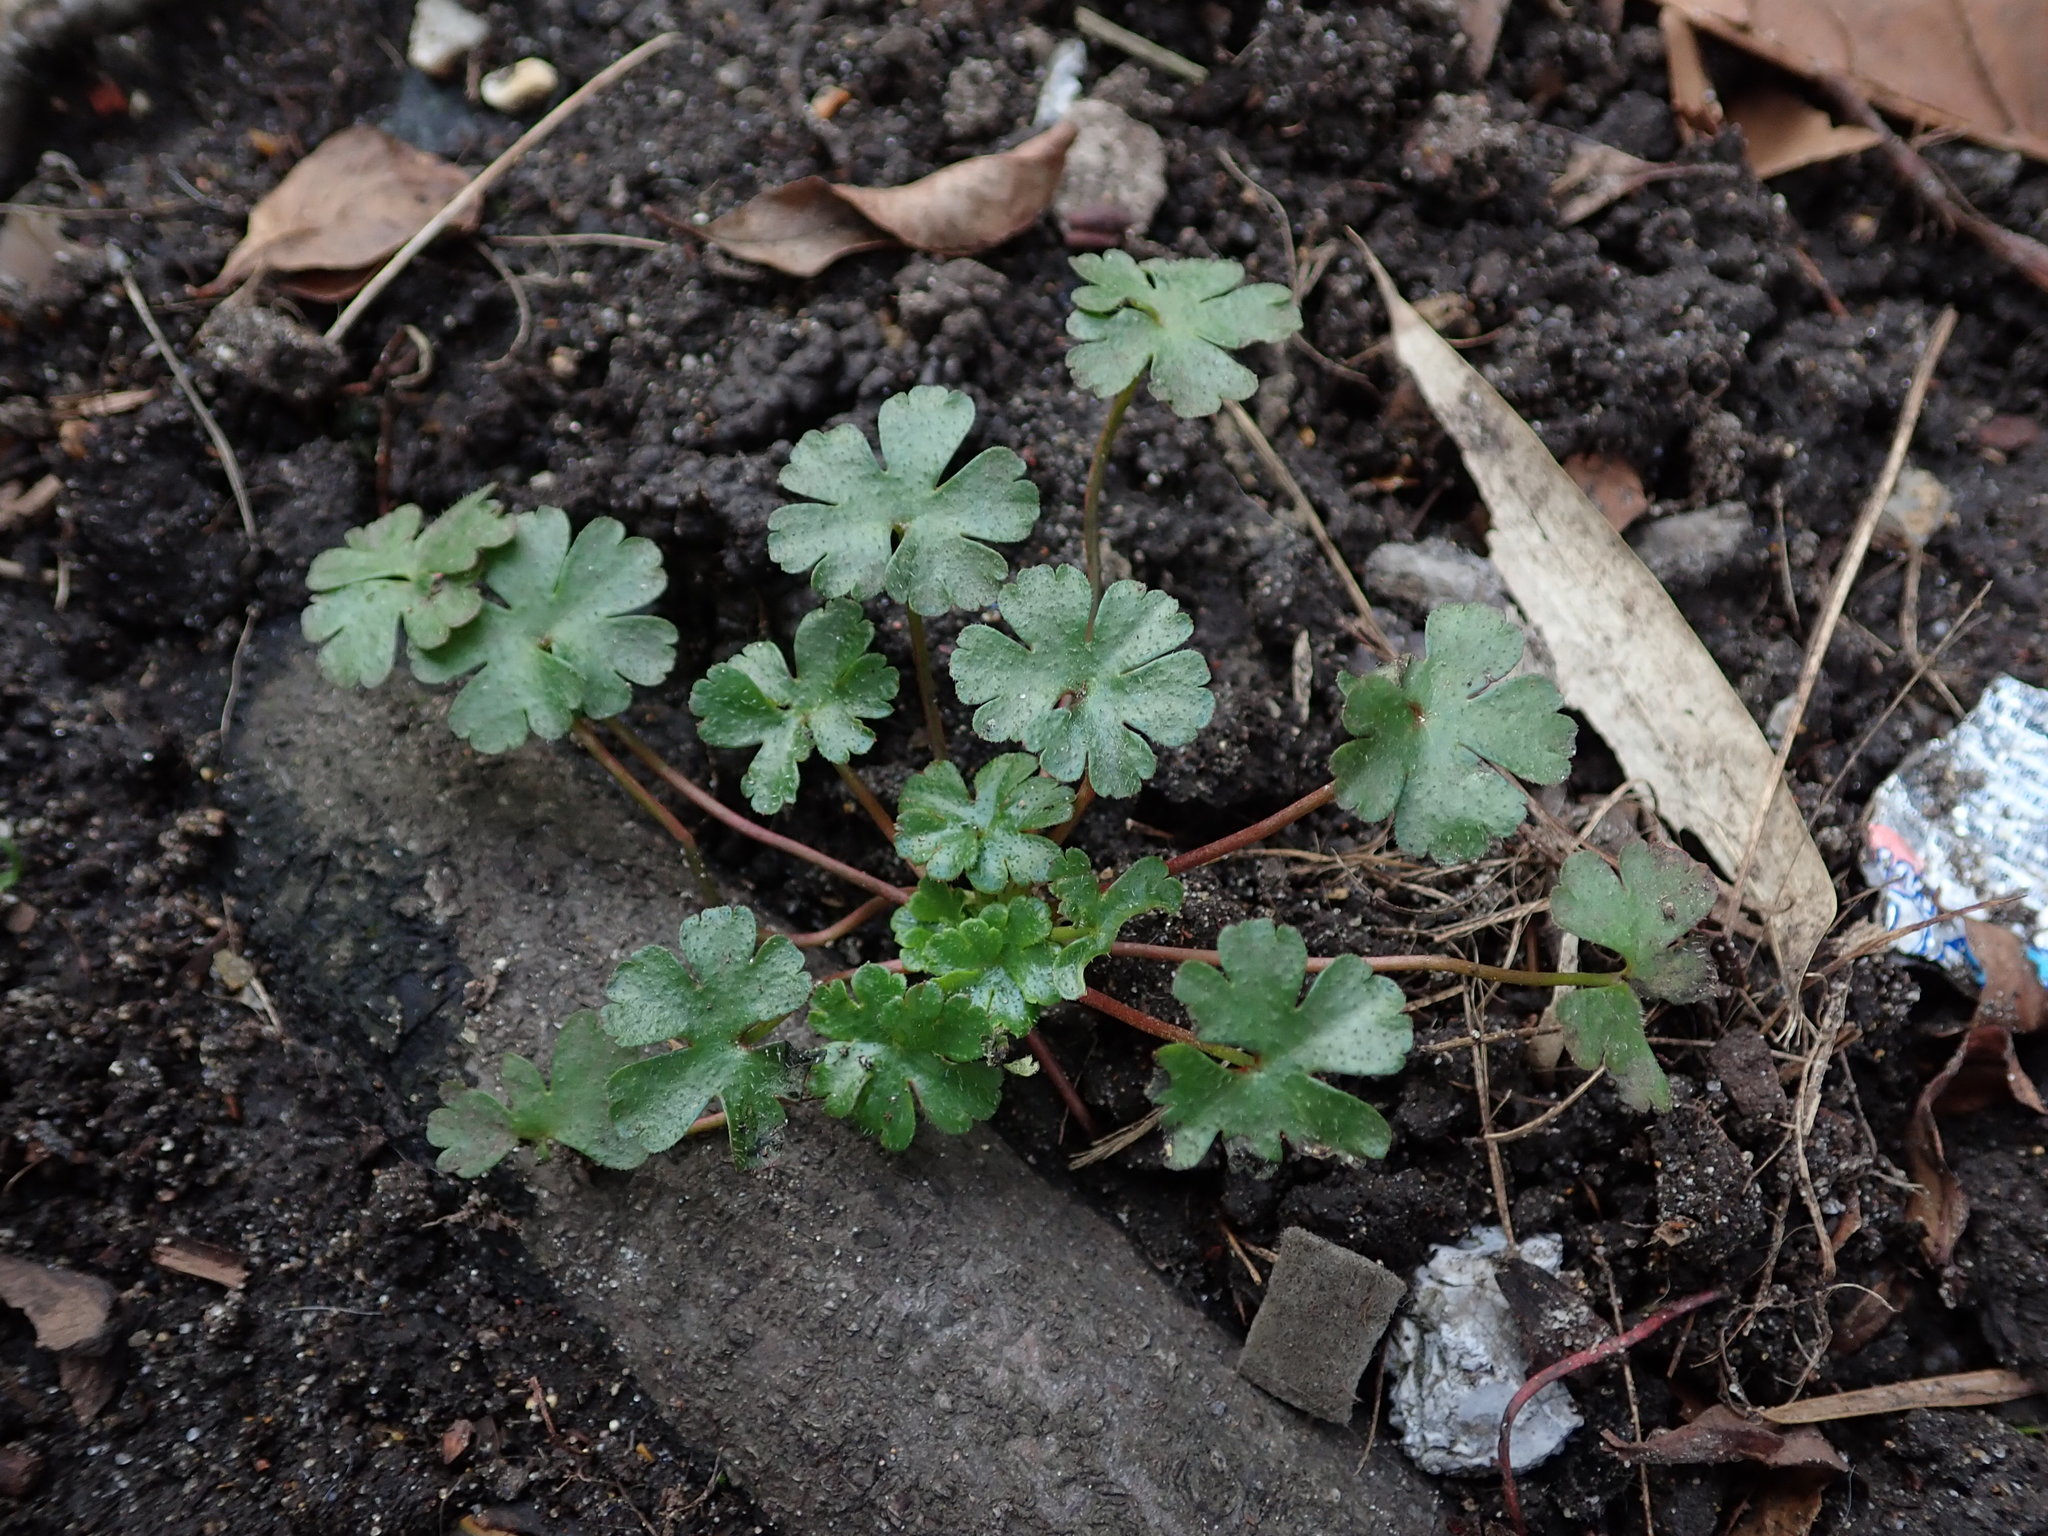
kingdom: Plantae
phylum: Tracheophyta
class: Magnoliopsida
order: Geraniales
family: Geraniaceae
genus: Geranium
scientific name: Geranium lucidum
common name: Shining crane's-bill
